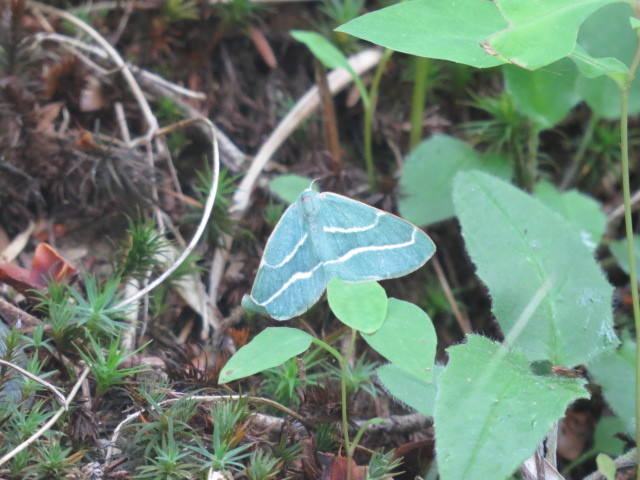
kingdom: Animalia
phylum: Arthropoda
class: Insecta
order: Lepidoptera
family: Geometridae
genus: Hylaea
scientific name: Hylaea fasciaria
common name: Barred red
